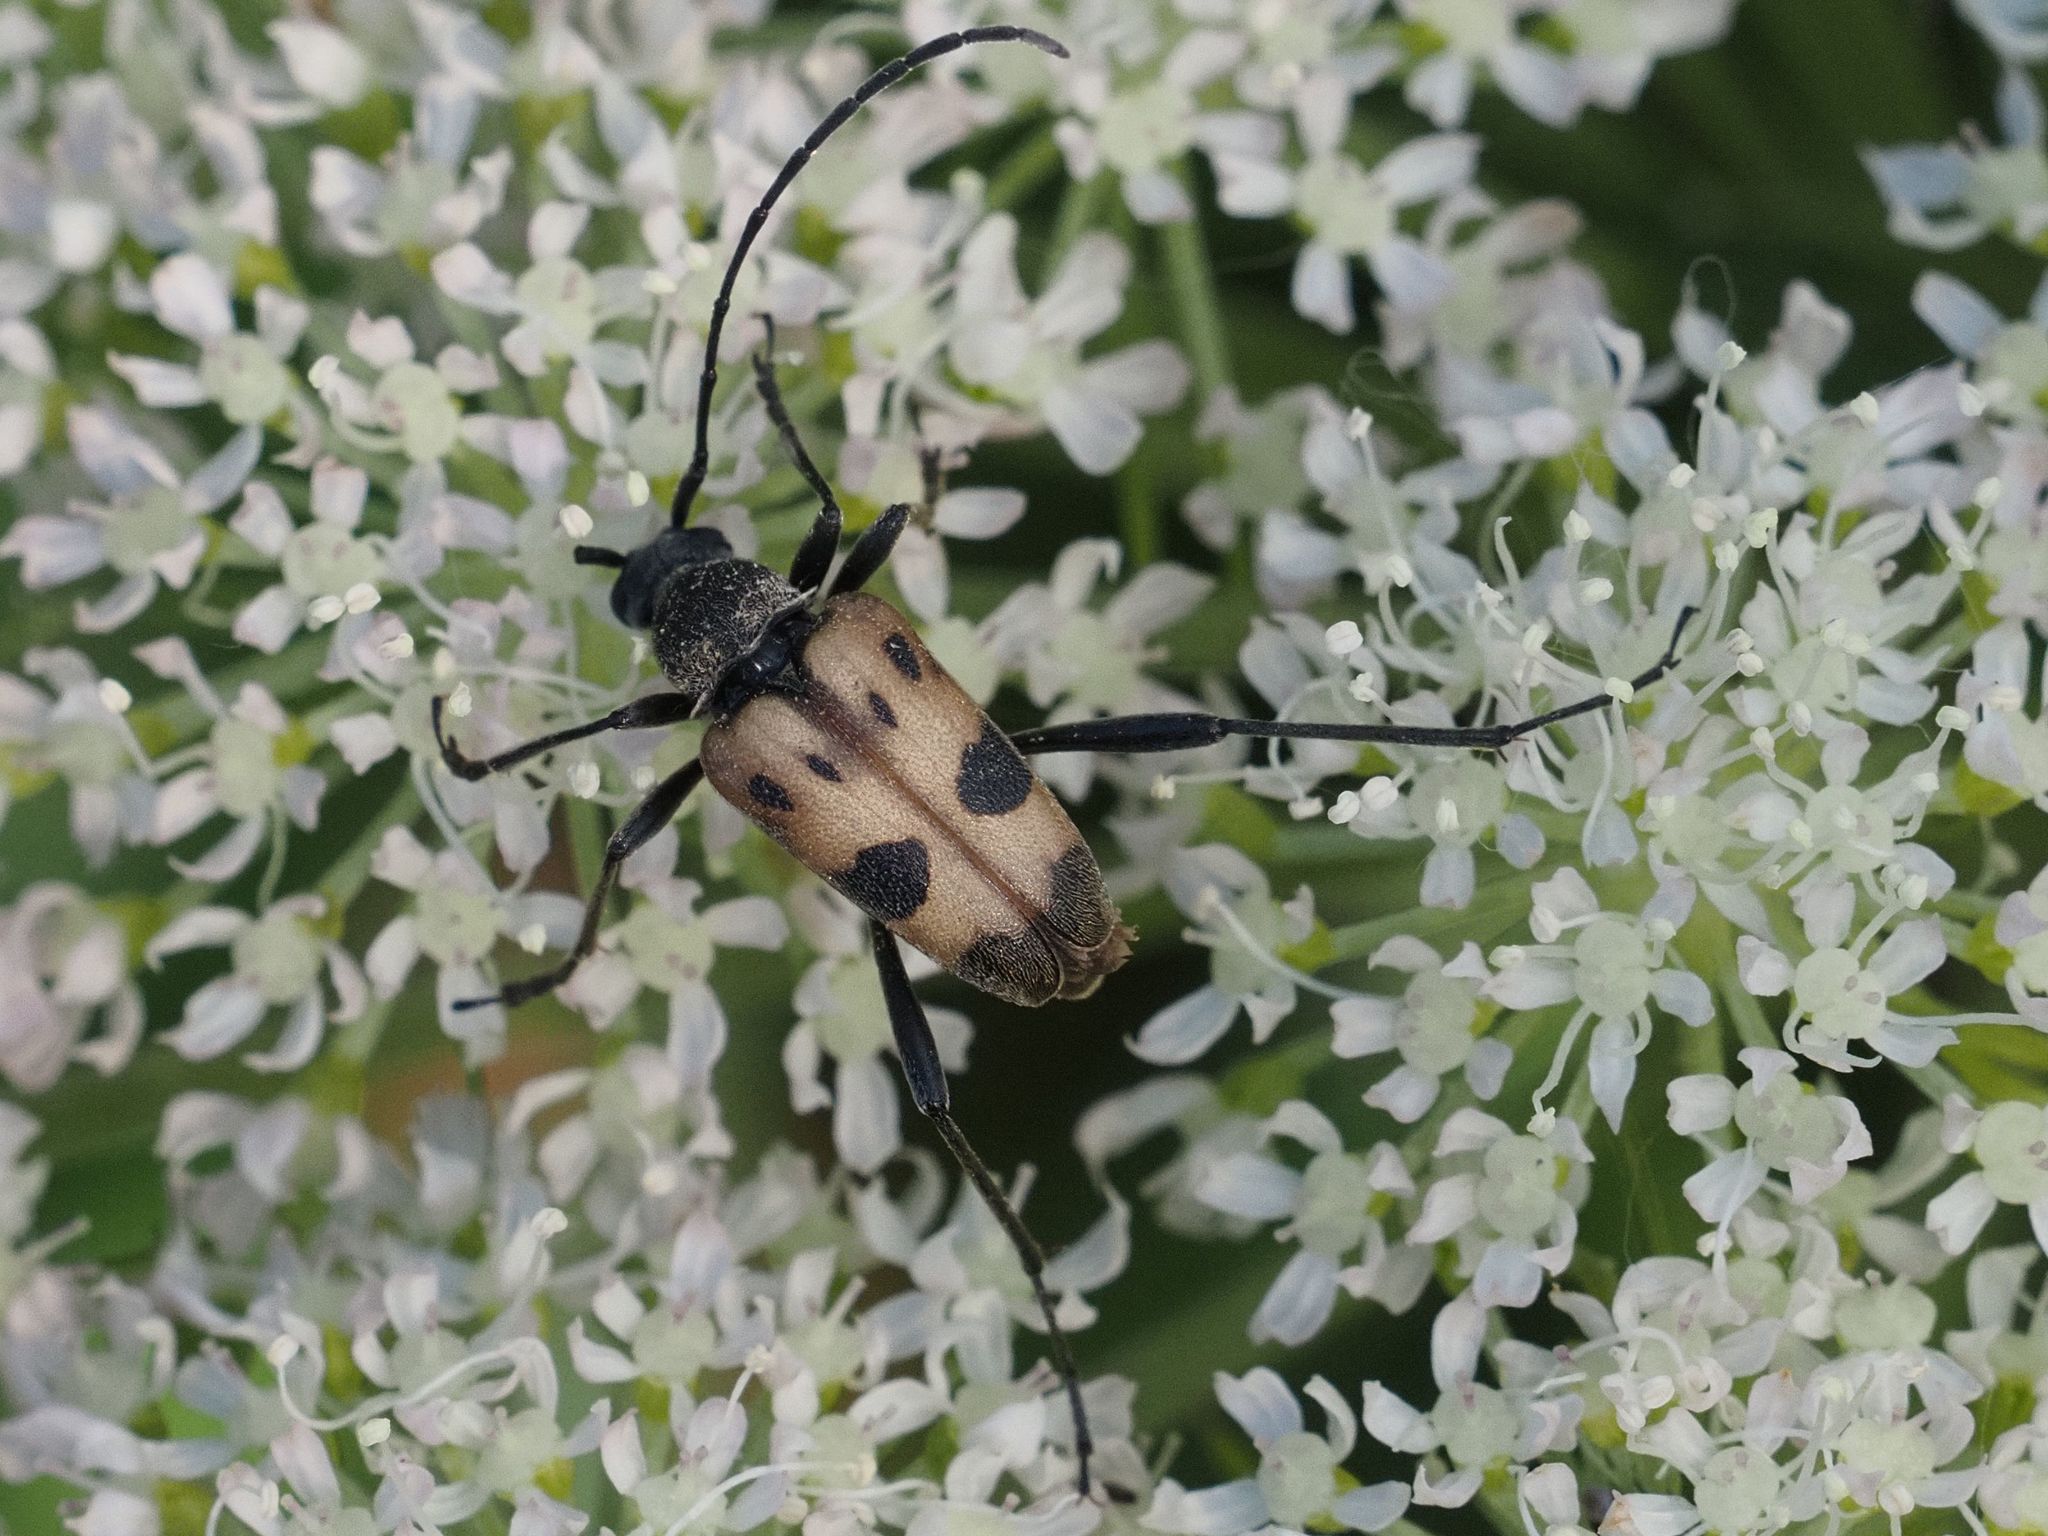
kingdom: Animalia
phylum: Arthropoda
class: Insecta
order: Coleoptera
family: Cerambycidae
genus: Pachytodes
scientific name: Pachytodes cerambyciformis
